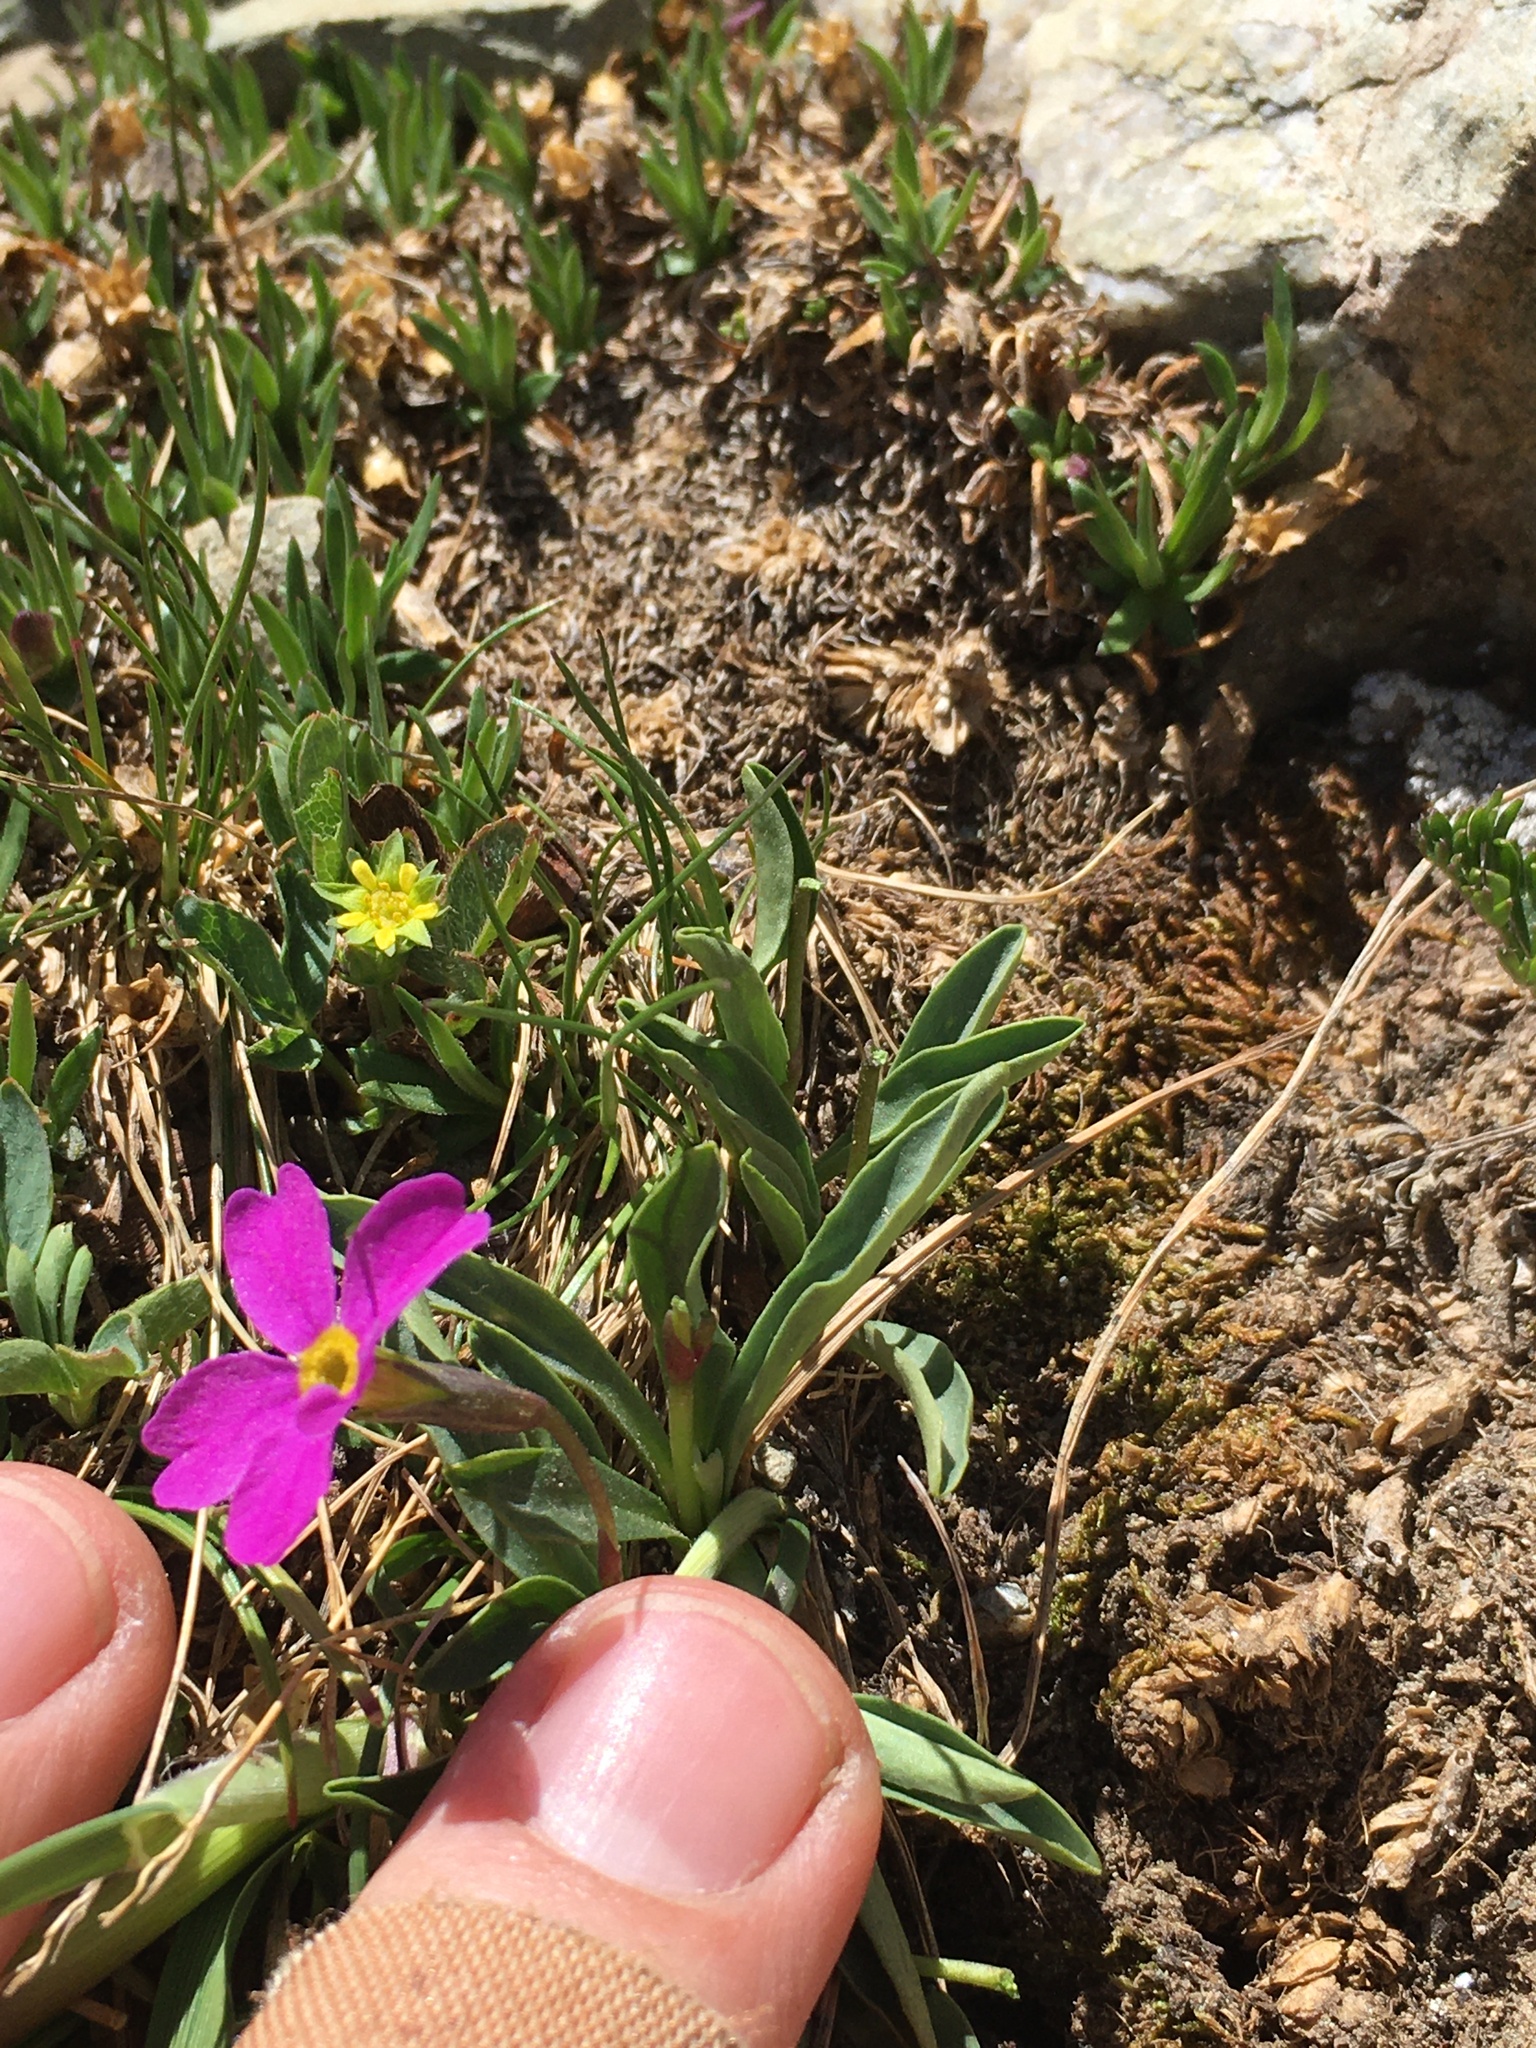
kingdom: Plantae
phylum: Tracheophyta
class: Magnoliopsida
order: Ericales
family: Primulaceae
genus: Primula
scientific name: Primula angustifolia
